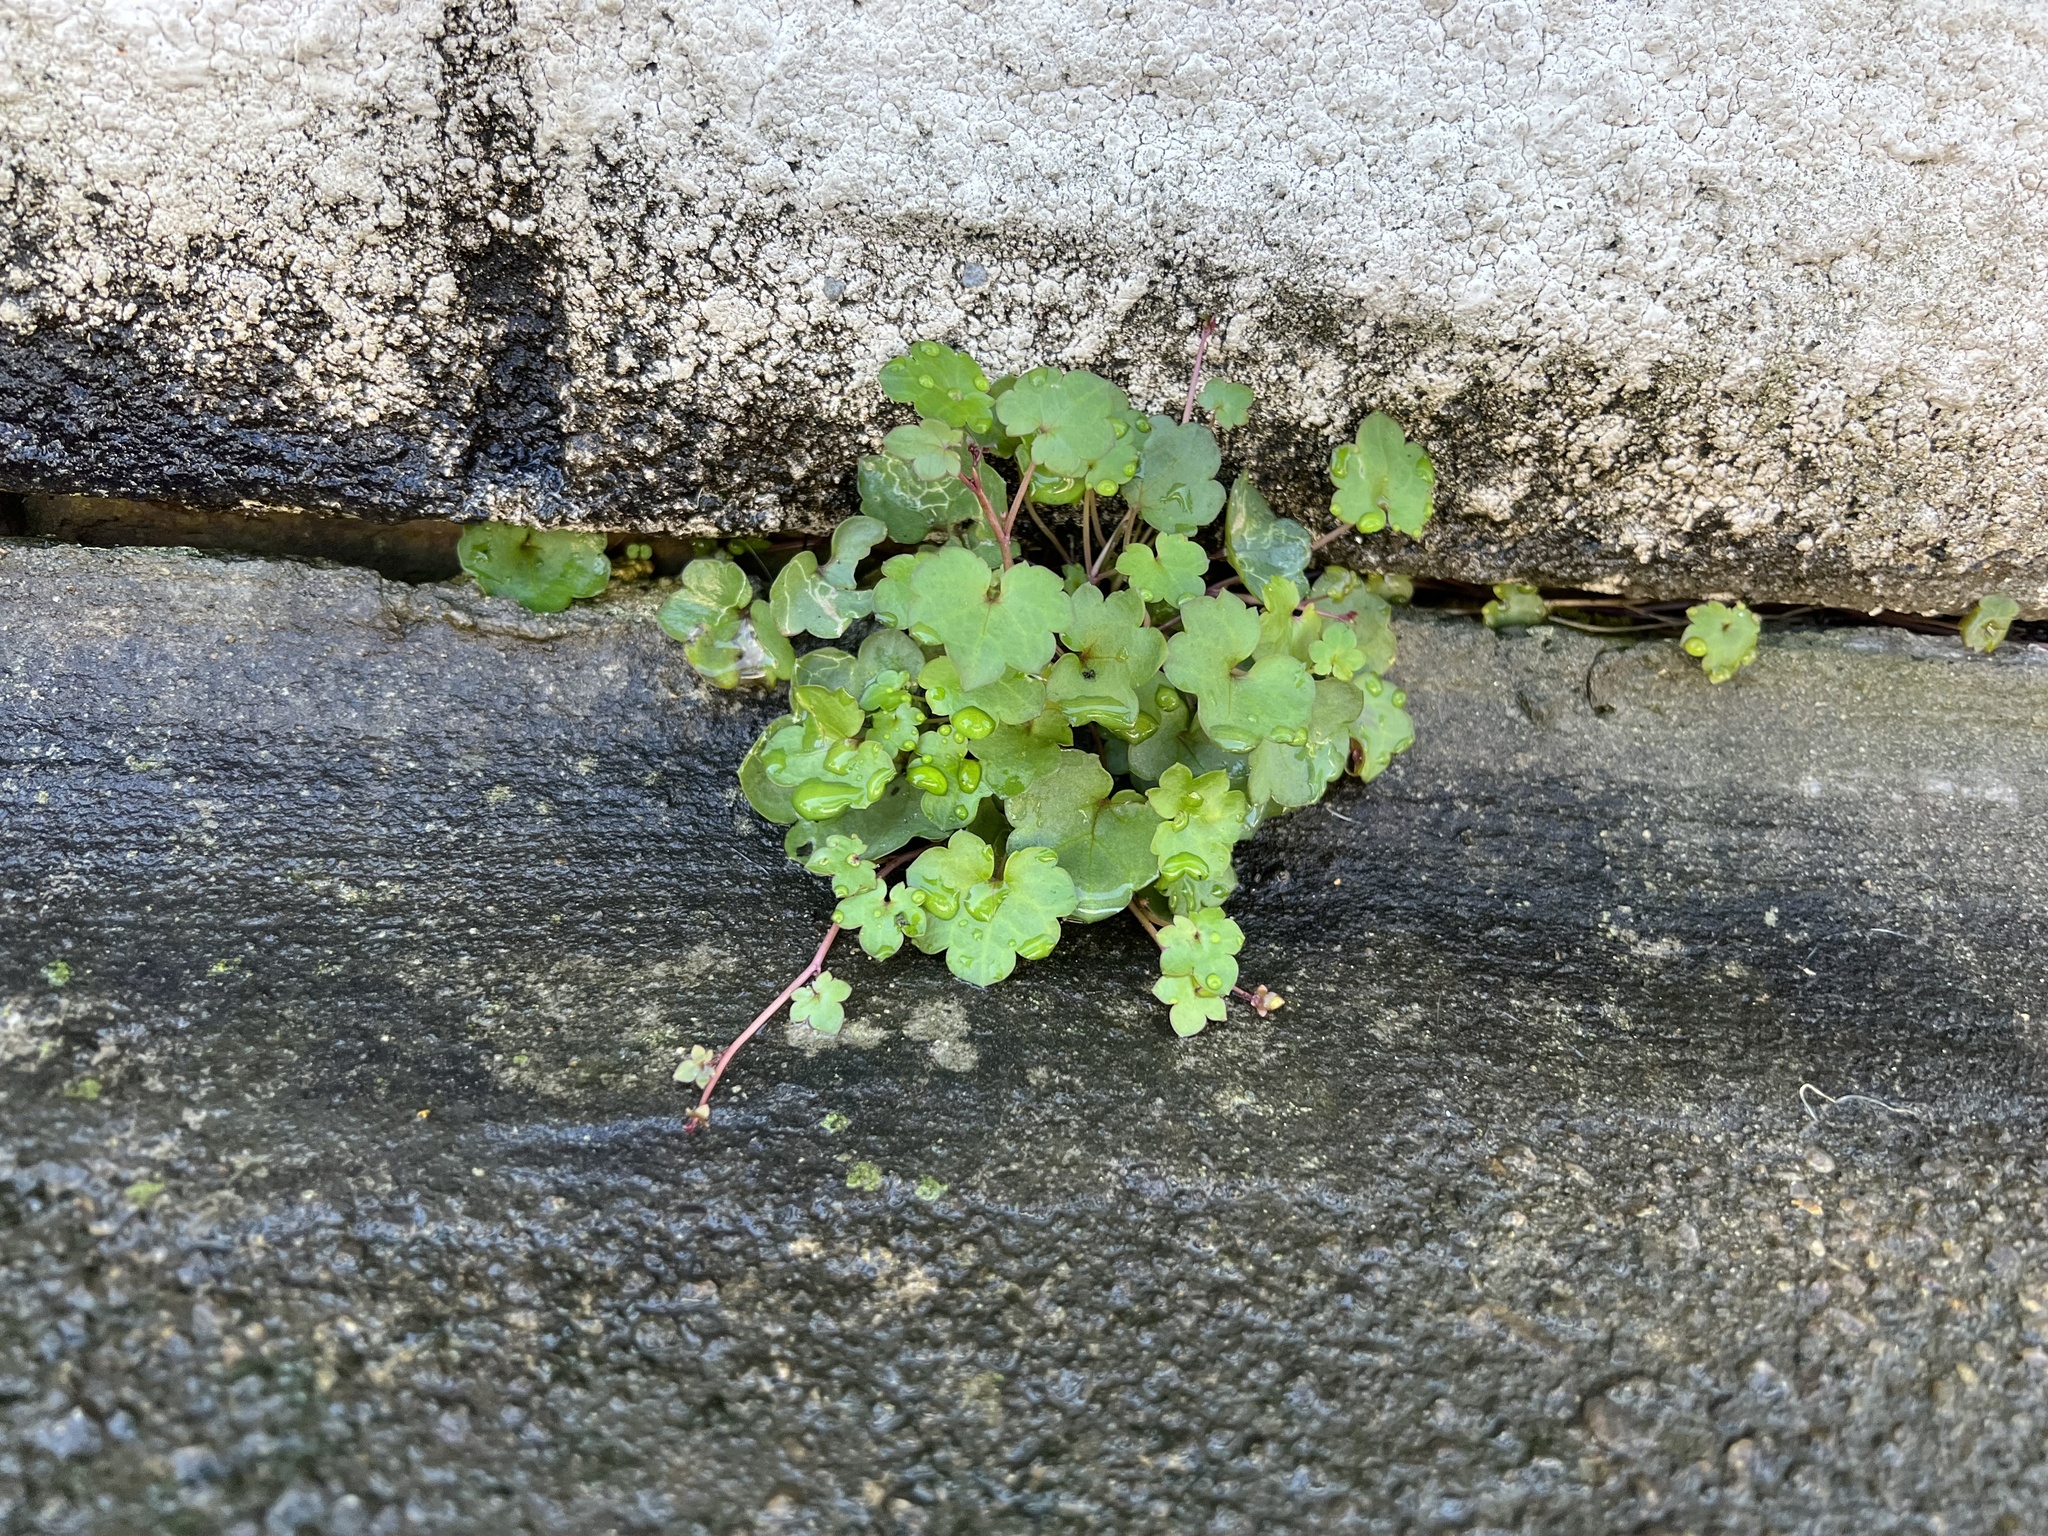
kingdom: Plantae
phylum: Tracheophyta
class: Magnoliopsida
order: Lamiales
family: Plantaginaceae
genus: Cymbalaria
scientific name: Cymbalaria muralis
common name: Ivy-leaved toadflax
